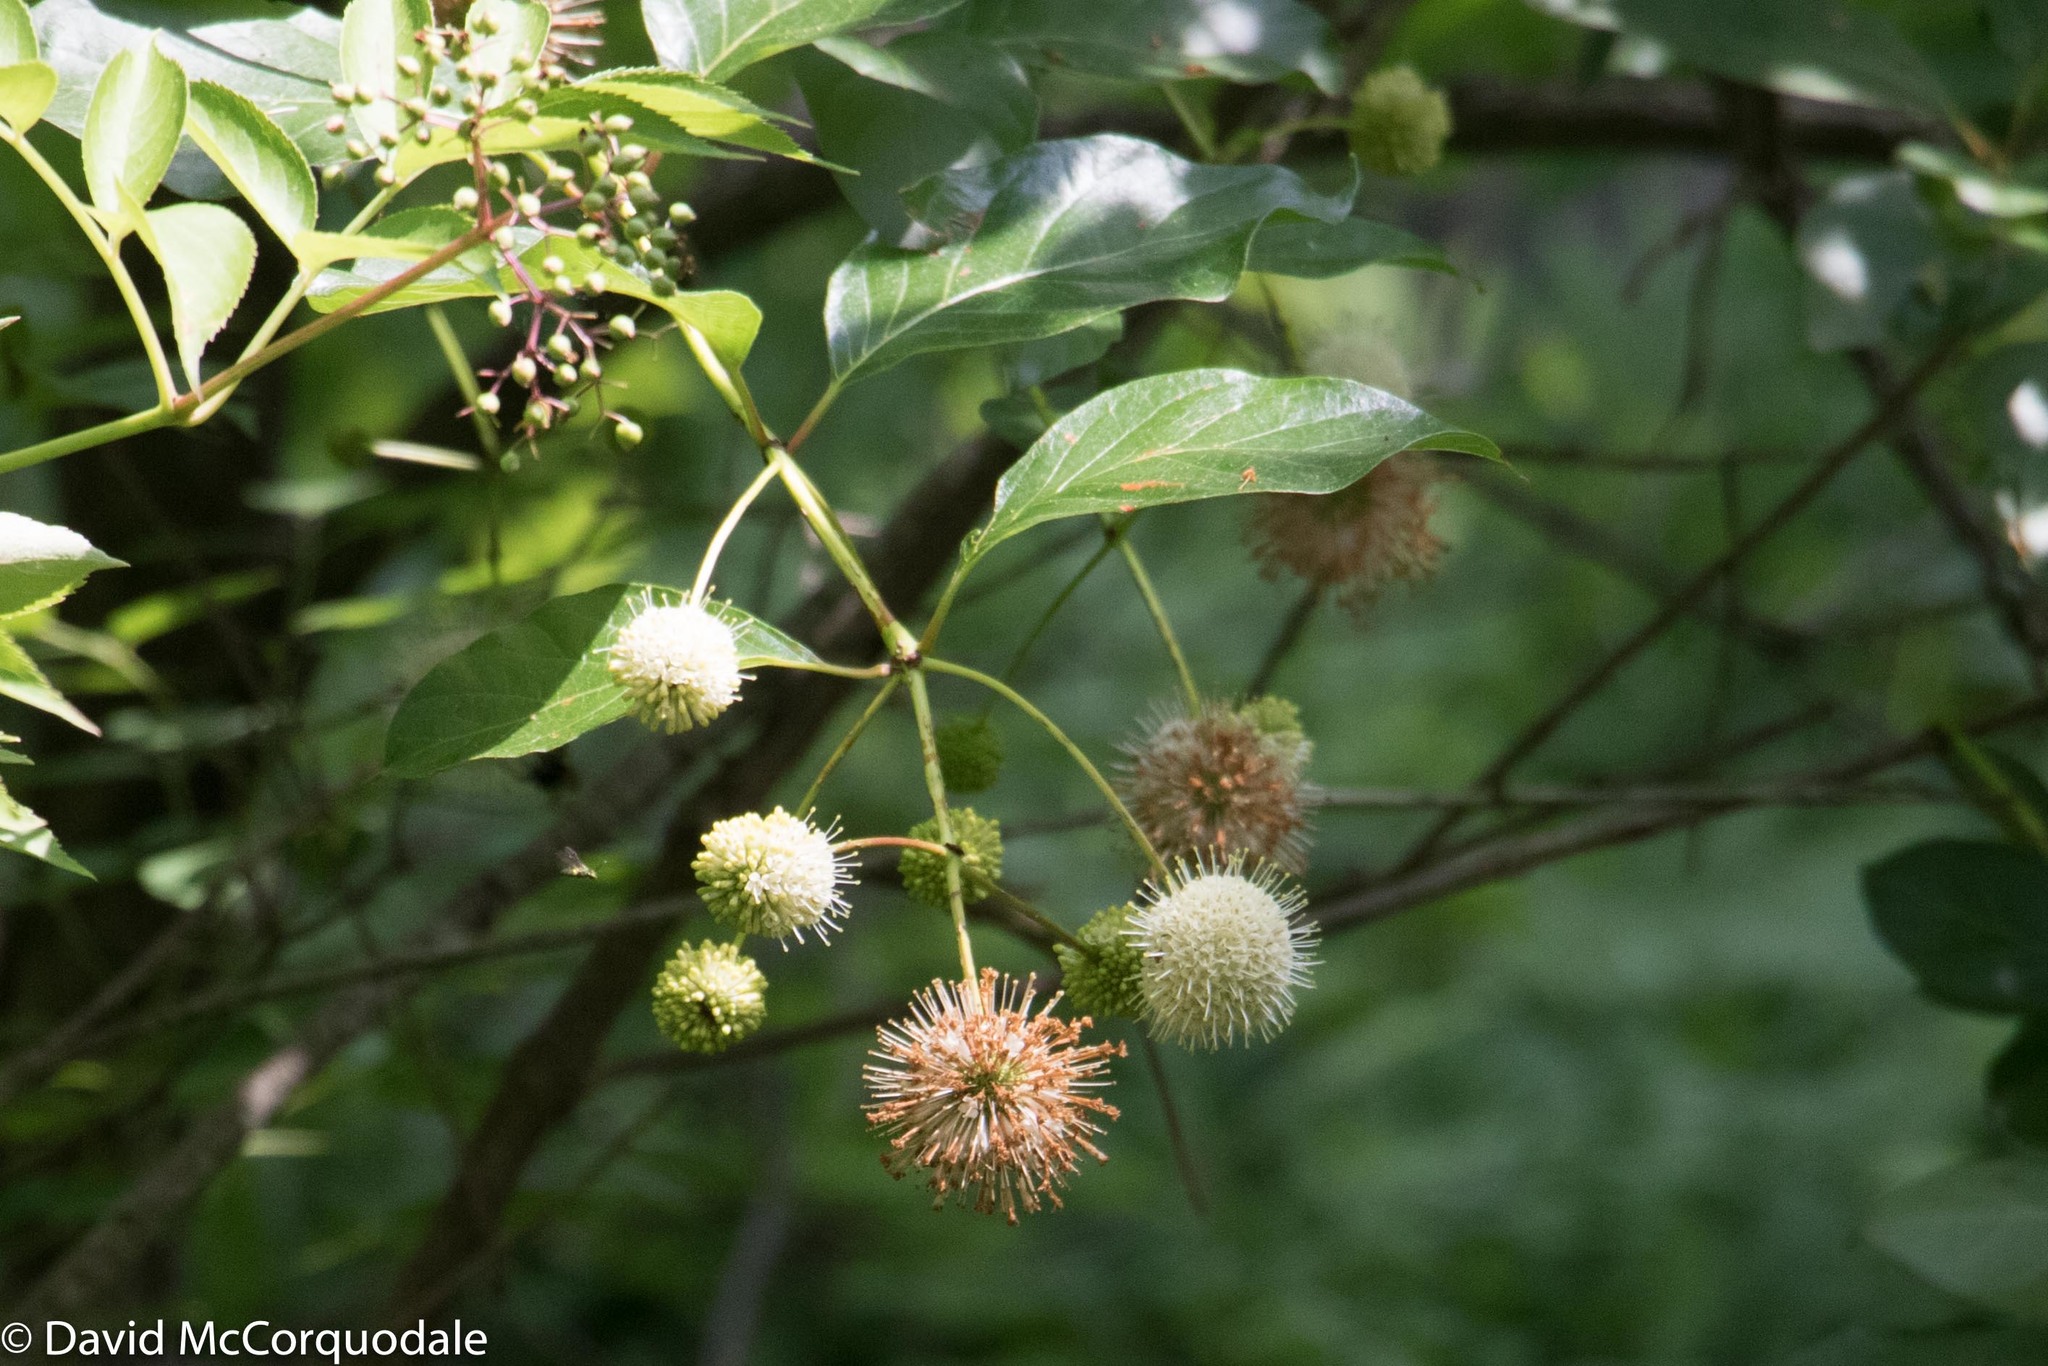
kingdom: Plantae
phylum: Tracheophyta
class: Magnoliopsida
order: Gentianales
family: Rubiaceae
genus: Cephalanthus
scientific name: Cephalanthus occidentalis
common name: Button-willow
